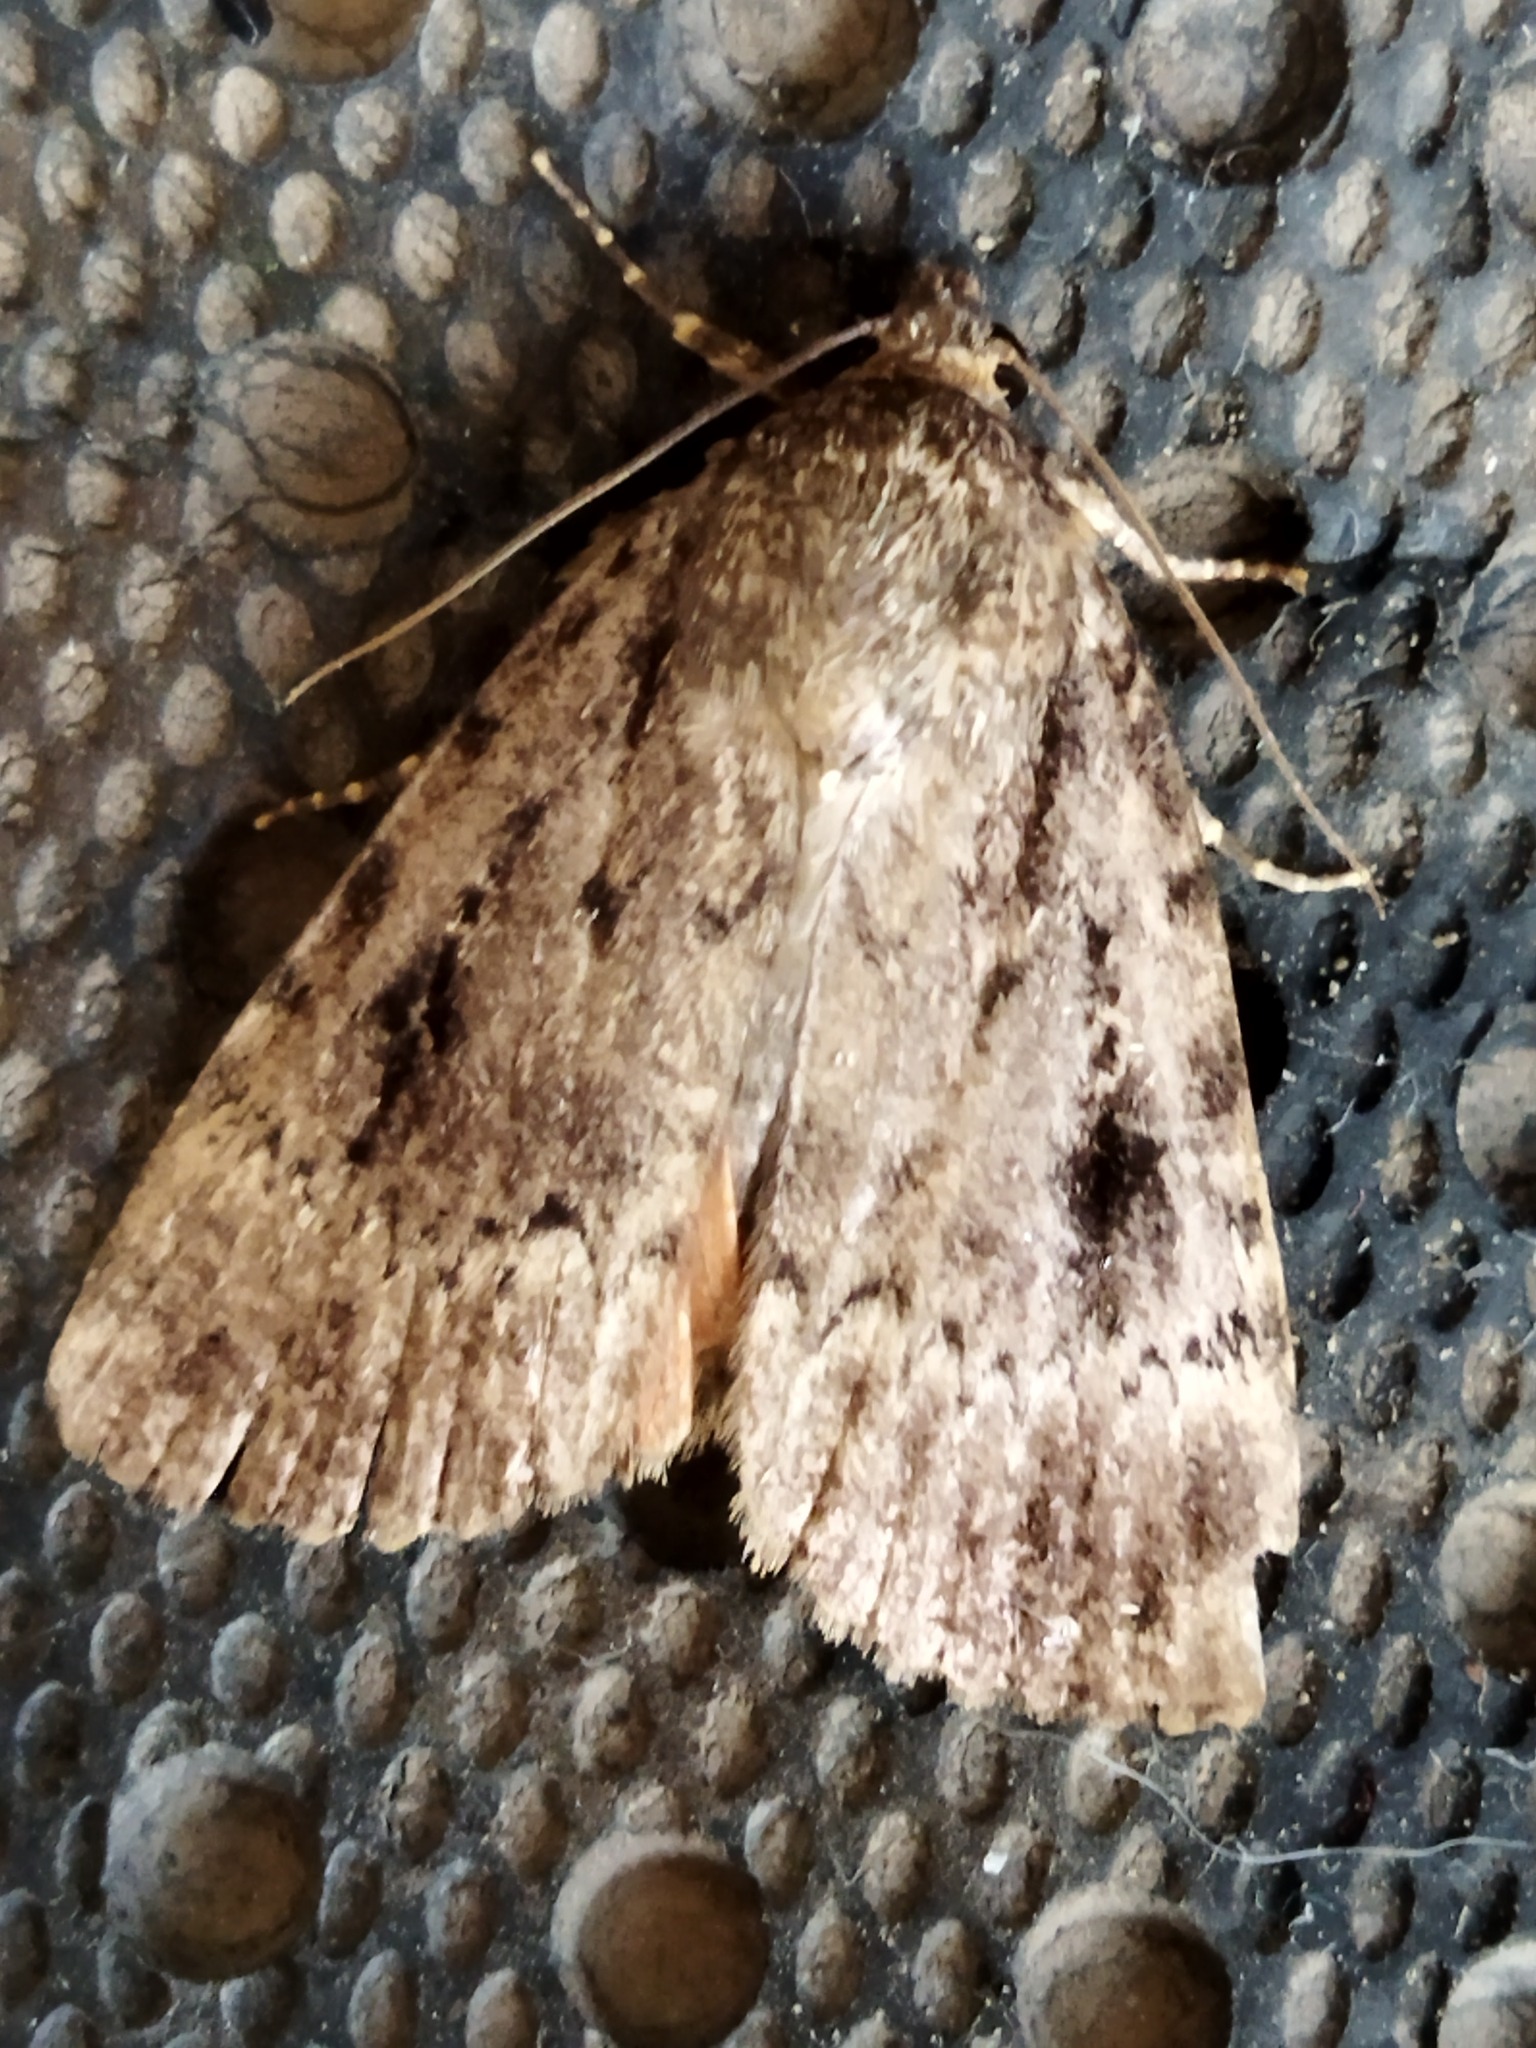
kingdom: Animalia
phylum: Arthropoda
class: Insecta
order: Lepidoptera
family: Noctuidae
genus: Amphipyra
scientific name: Amphipyra pyramidea
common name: Copper underwing
